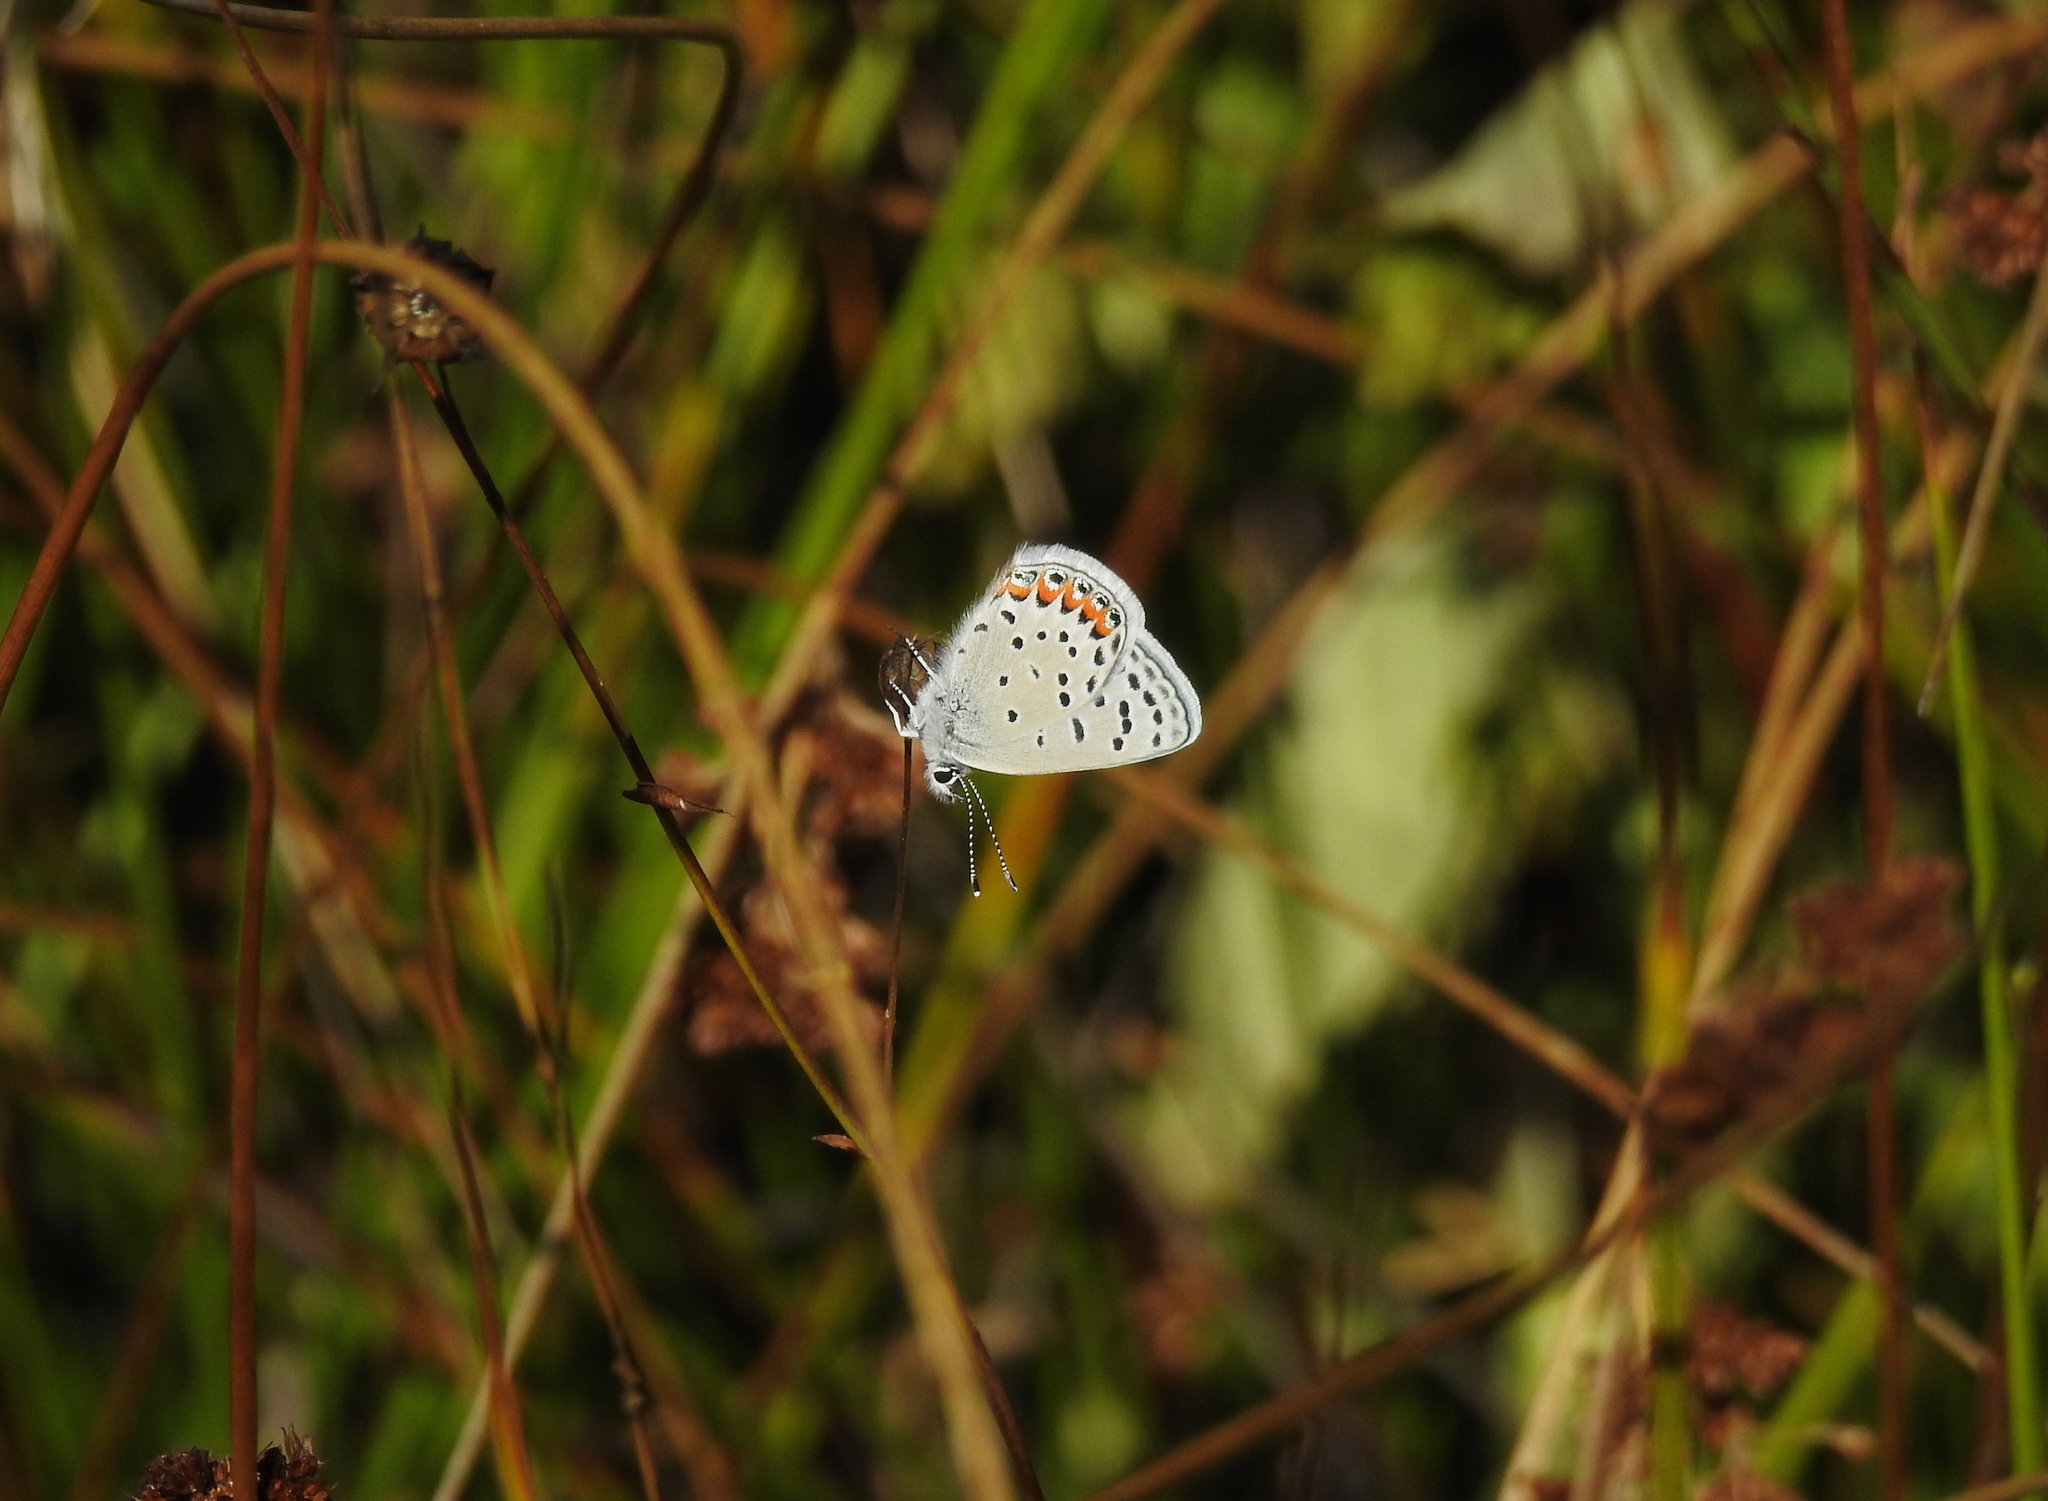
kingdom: Animalia
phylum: Arthropoda
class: Insecta
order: Lepidoptera
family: Lycaenidae
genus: Icaricia
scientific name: Icaricia acmon
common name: Acmon blue
